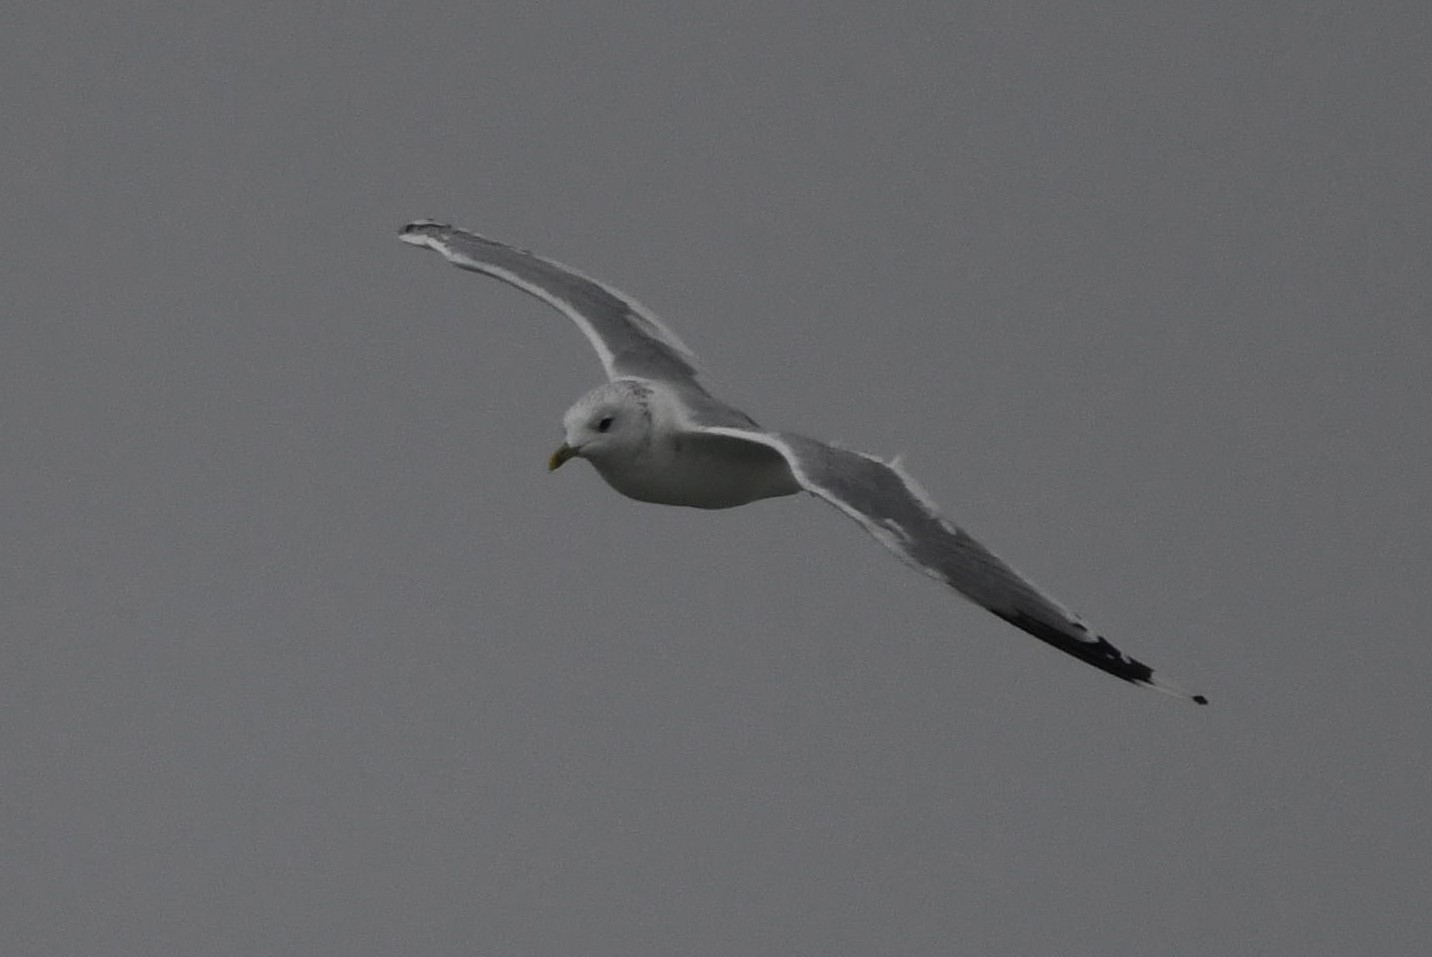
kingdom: Animalia
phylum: Chordata
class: Aves
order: Charadriiformes
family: Laridae
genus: Larus
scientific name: Larus canus
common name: Mew gull
